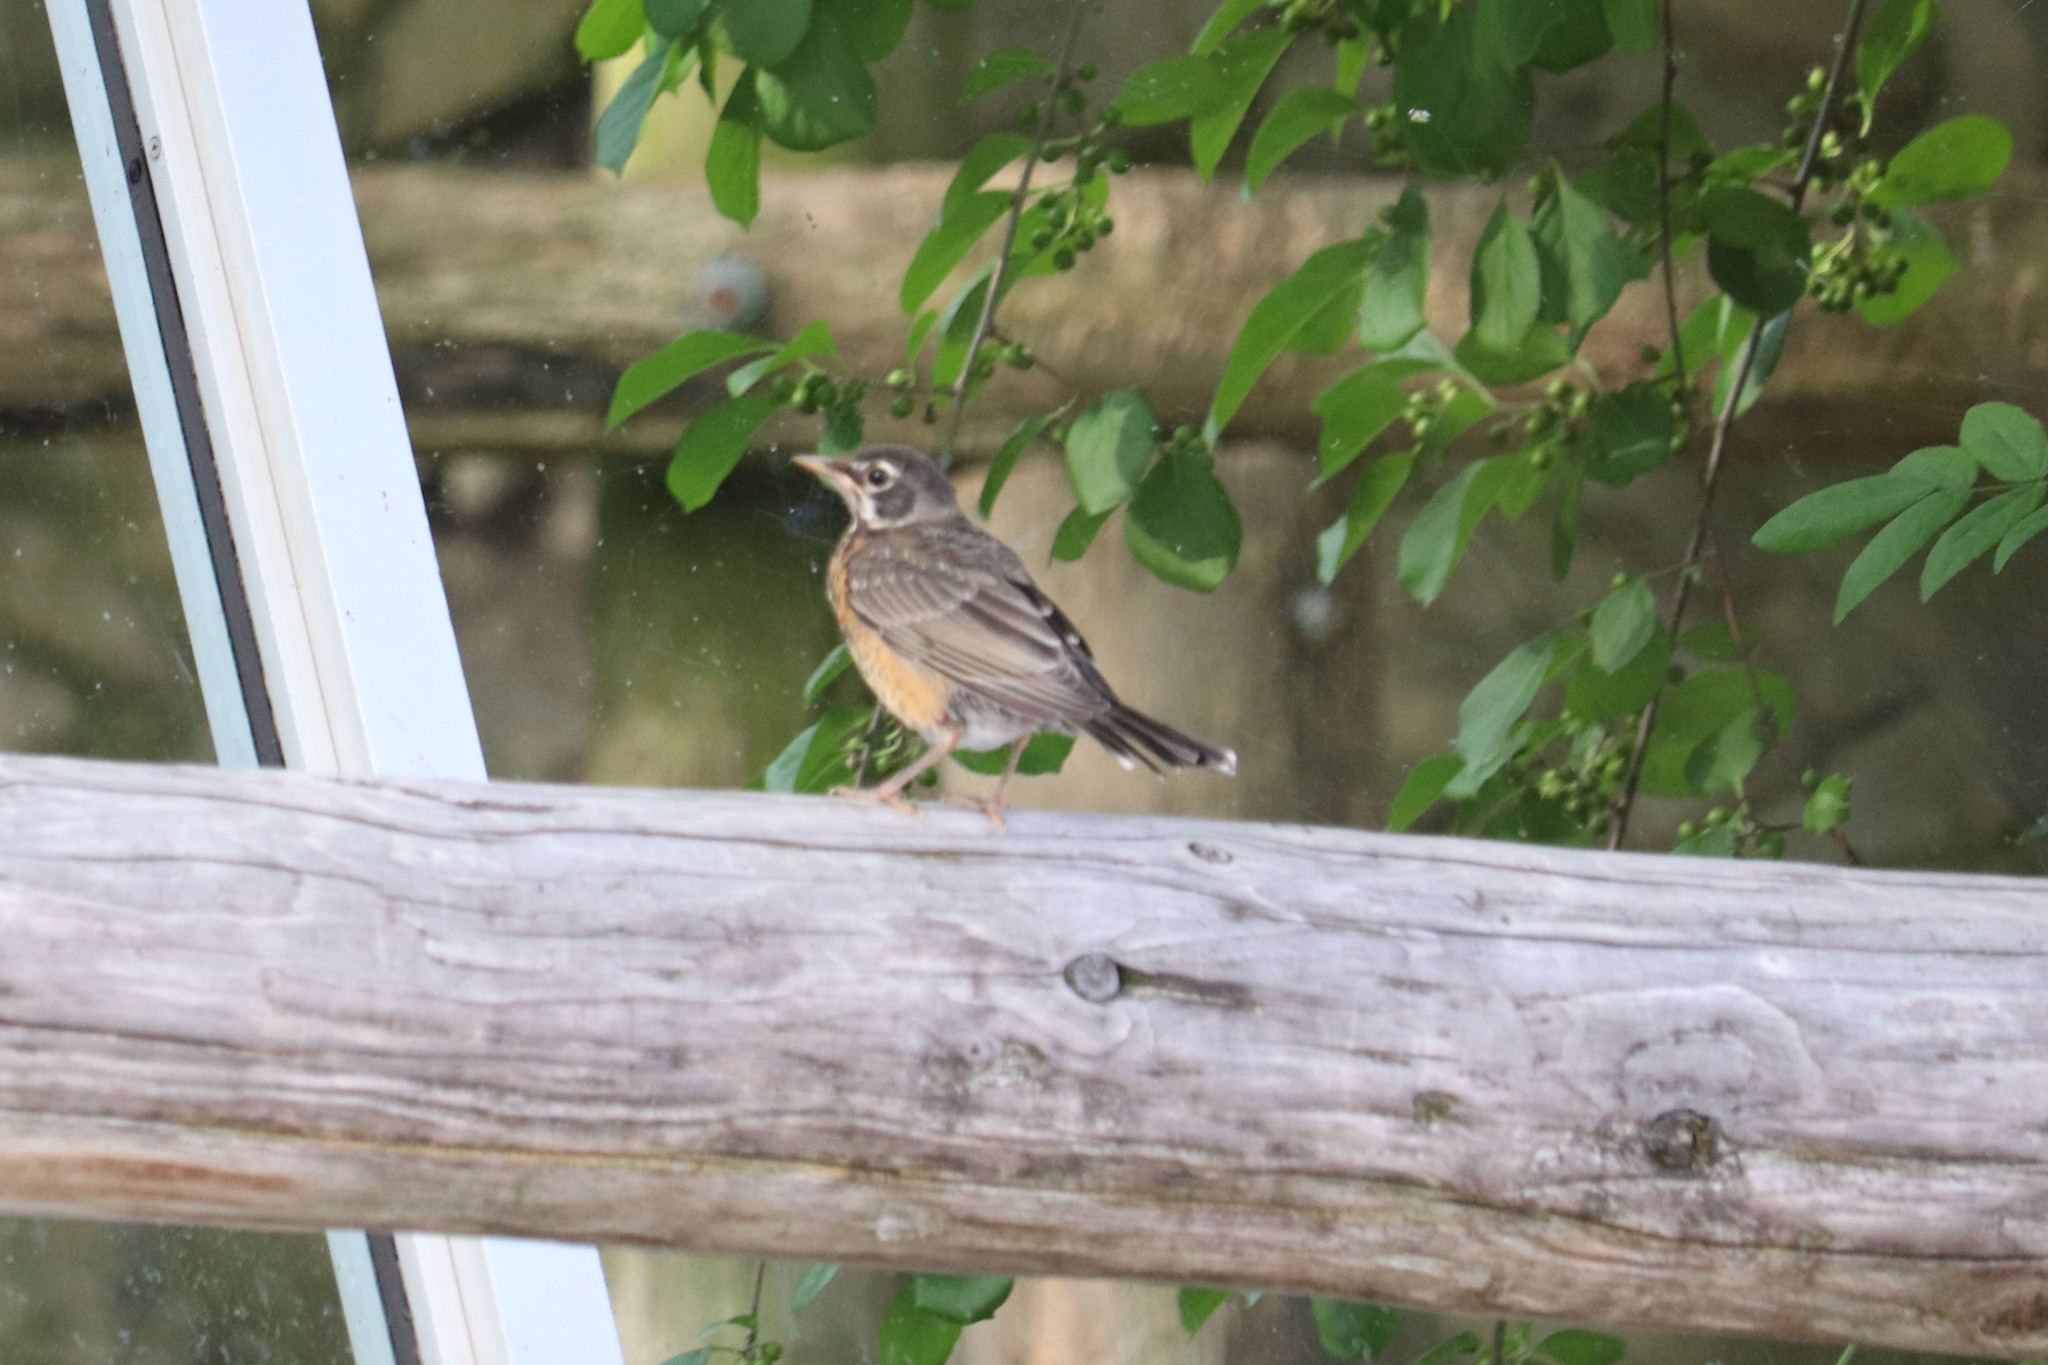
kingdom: Animalia
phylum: Chordata
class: Aves
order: Passeriformes
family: Turdidae
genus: Turdus
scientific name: Turdus migratorius
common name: American robin
